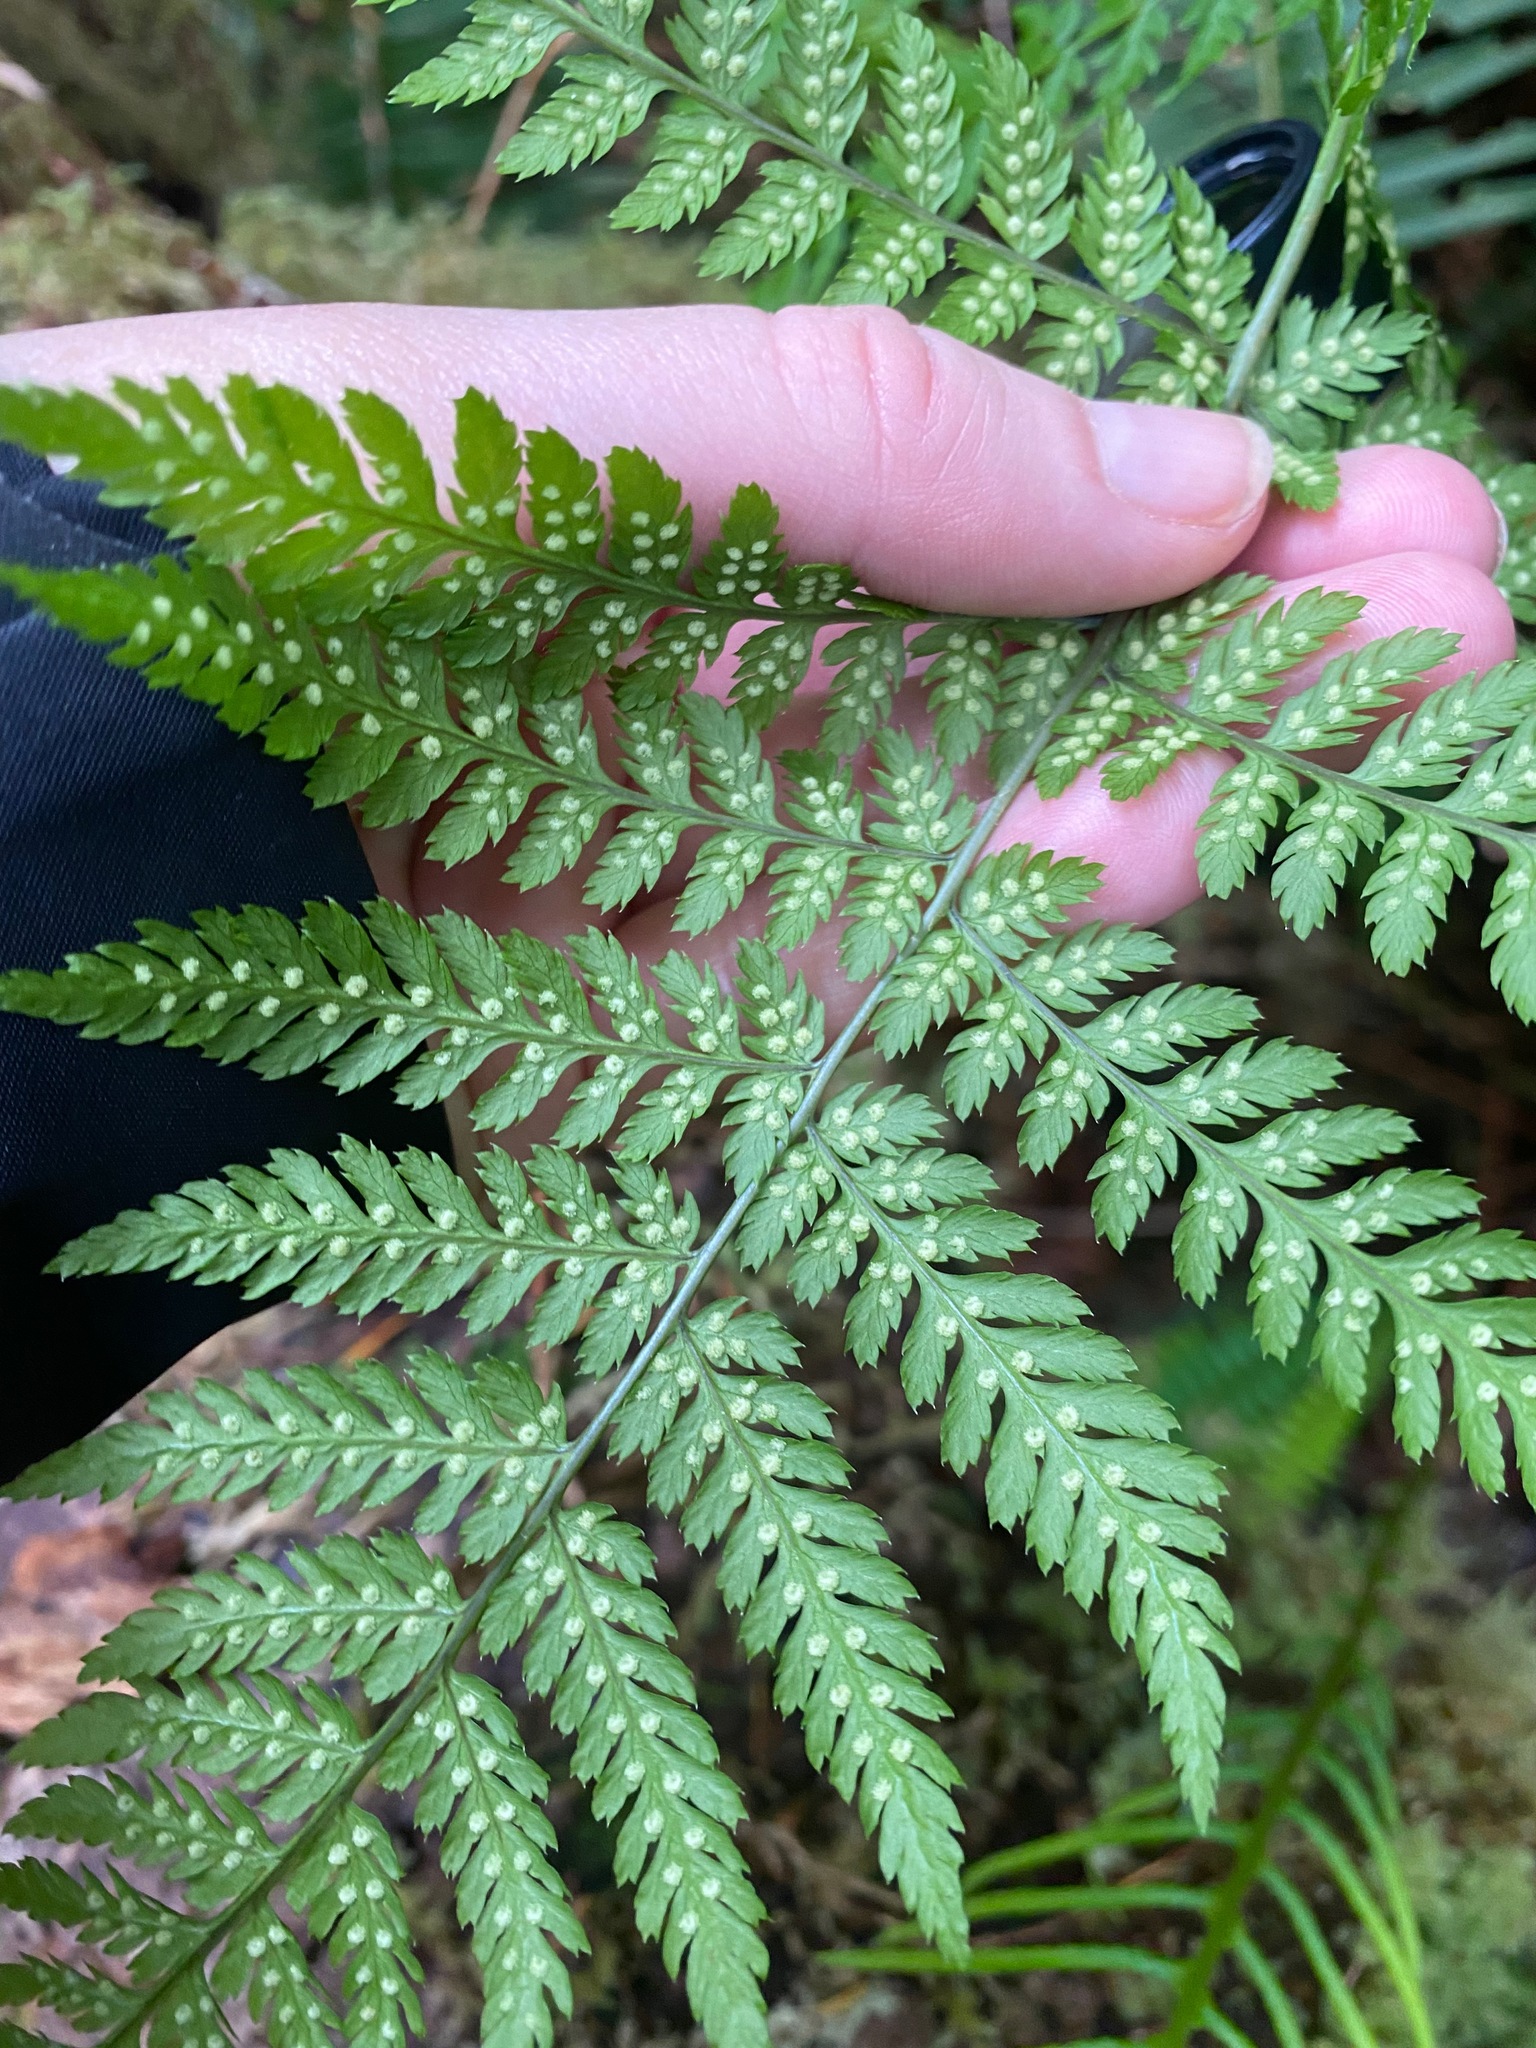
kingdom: Plantae
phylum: Tracheophyta
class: Polypodiopsida
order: Polypodiales
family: Dryopteridaceae
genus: Dryopteris
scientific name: Dryopteris expansa
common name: Northern buckler fern
